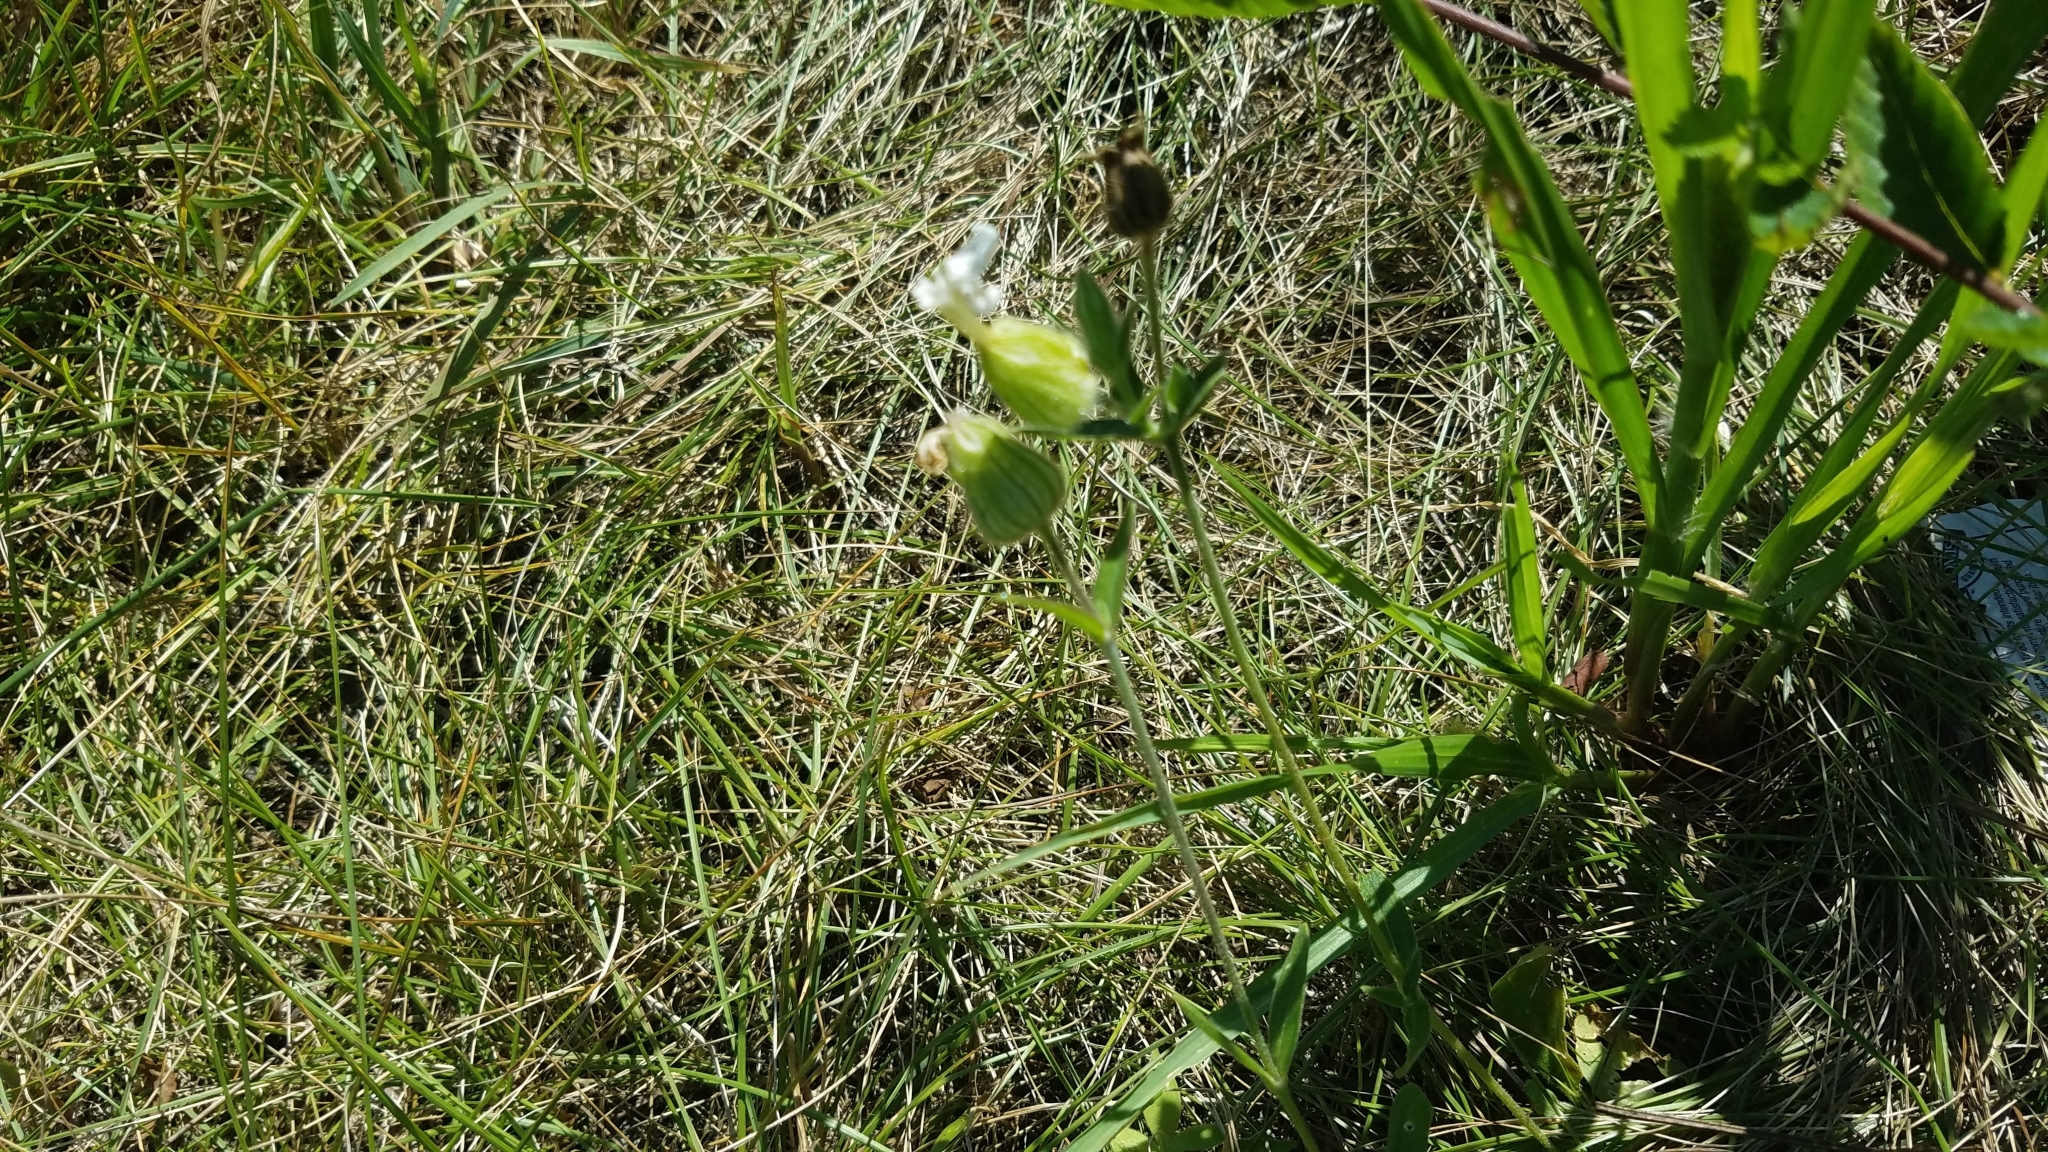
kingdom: Plantae
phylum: Tracheophyta
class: Magnoliopsida
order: Caryophyllales
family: Caryophyllaceae
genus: Silene
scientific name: Silene latifolia
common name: White campion
